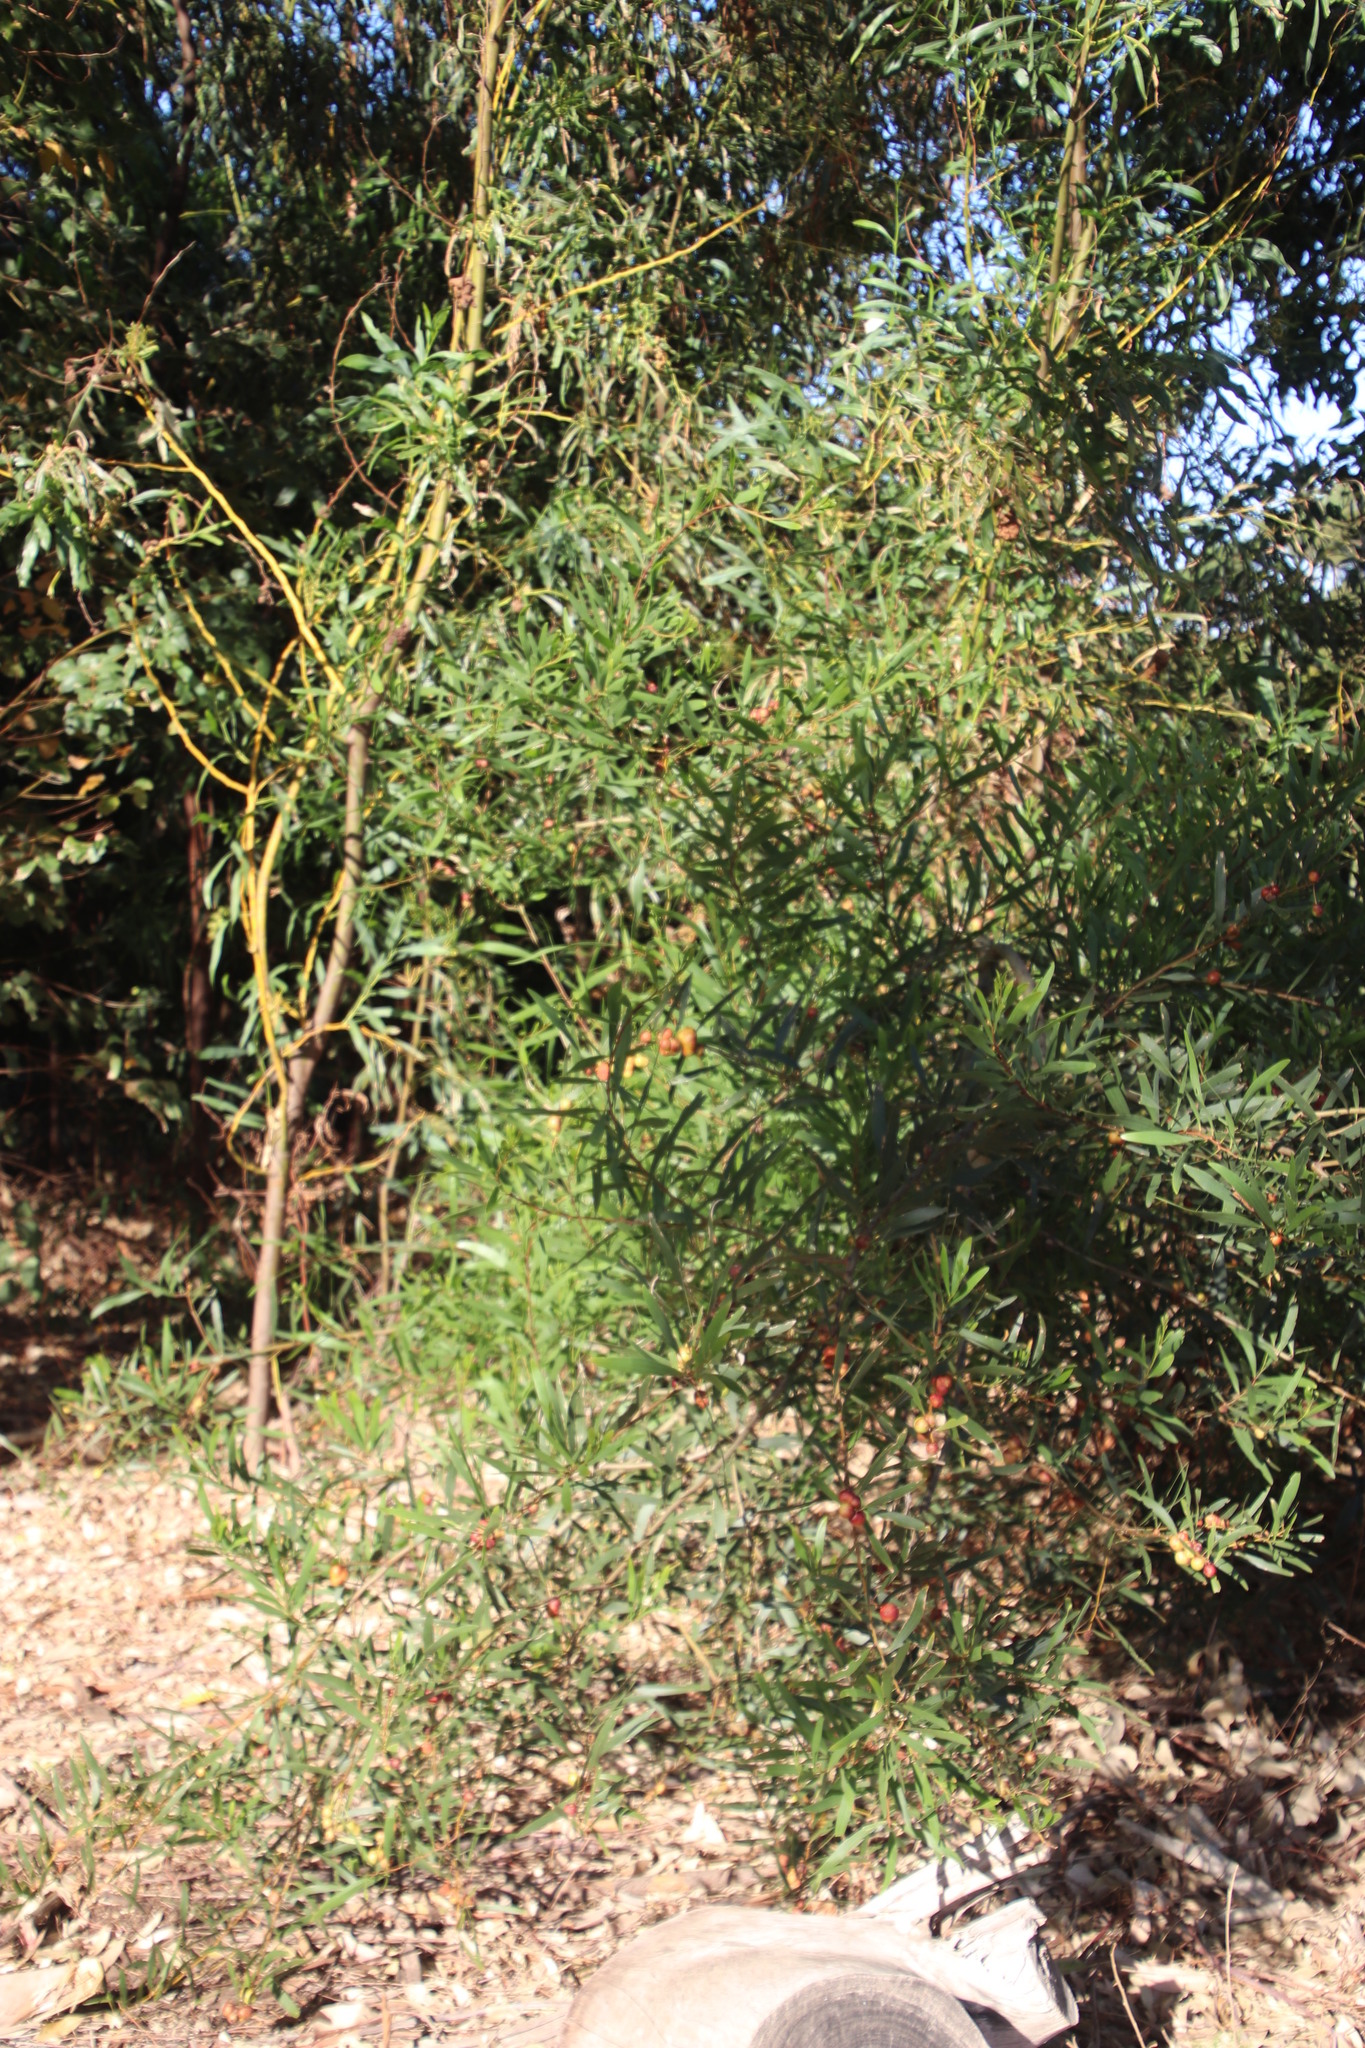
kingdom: Plantae
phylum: Tracheophyta
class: Magnoliopsida
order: Fabales
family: Fabaceae
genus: Acacia
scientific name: Acacia longifolia
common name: Sydney golden wattle
